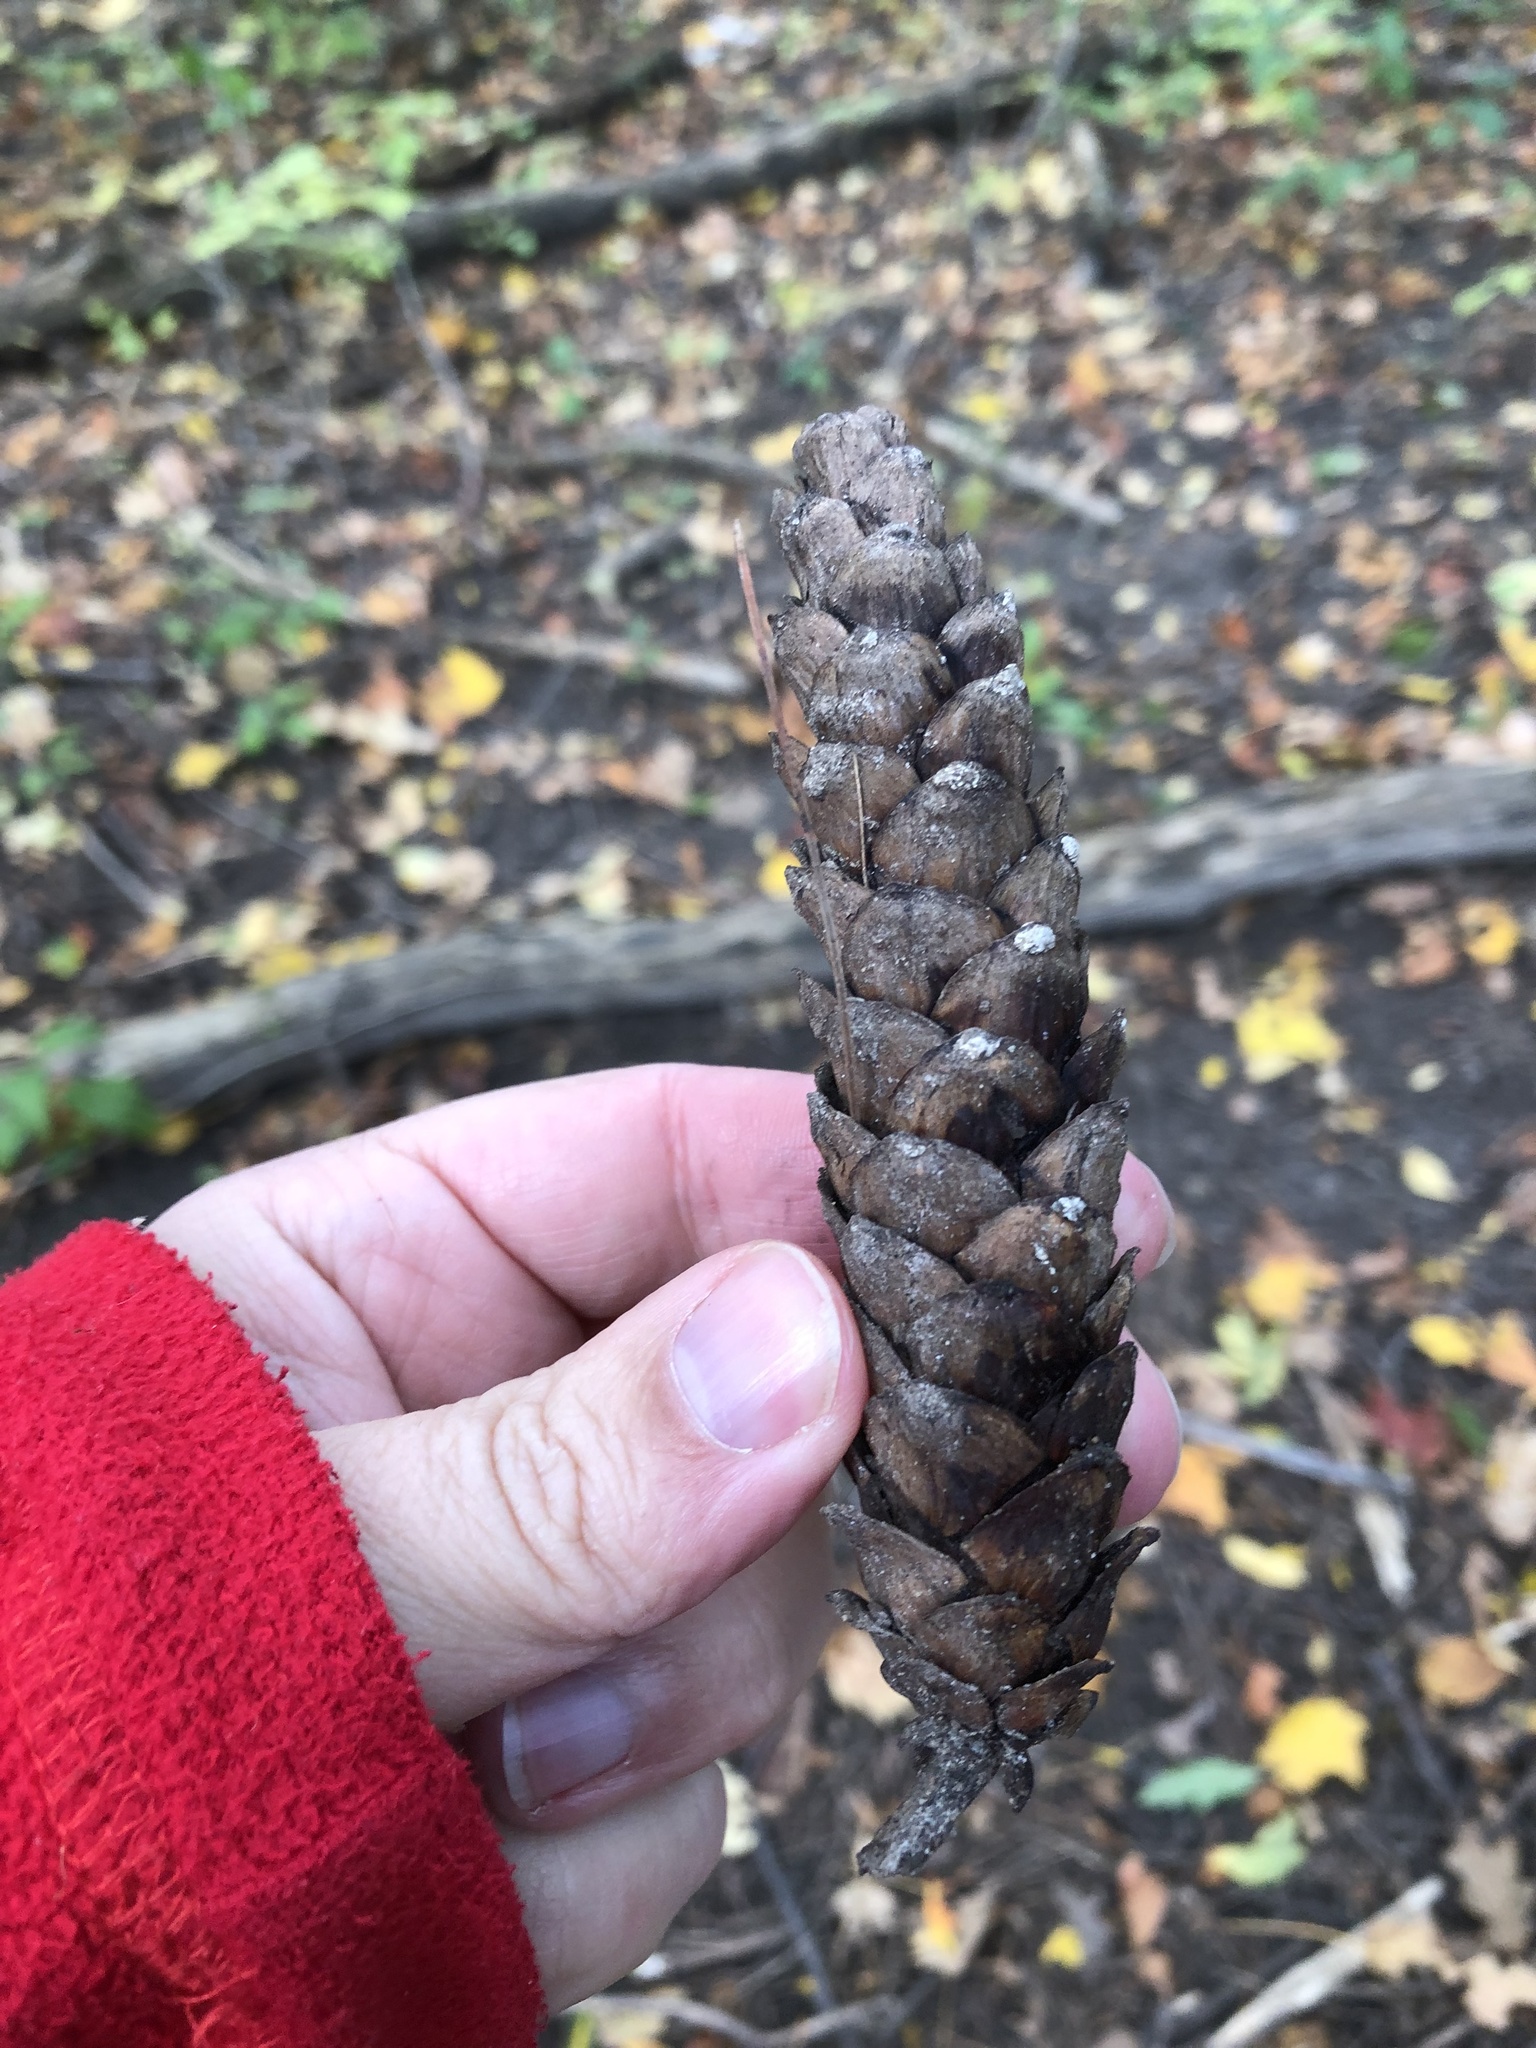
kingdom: Plantae
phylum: Tracheophyta
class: Pinopsida
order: Pinales
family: Pinaceae
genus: Pinus
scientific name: Pinus strobus
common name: Weymouth pine
